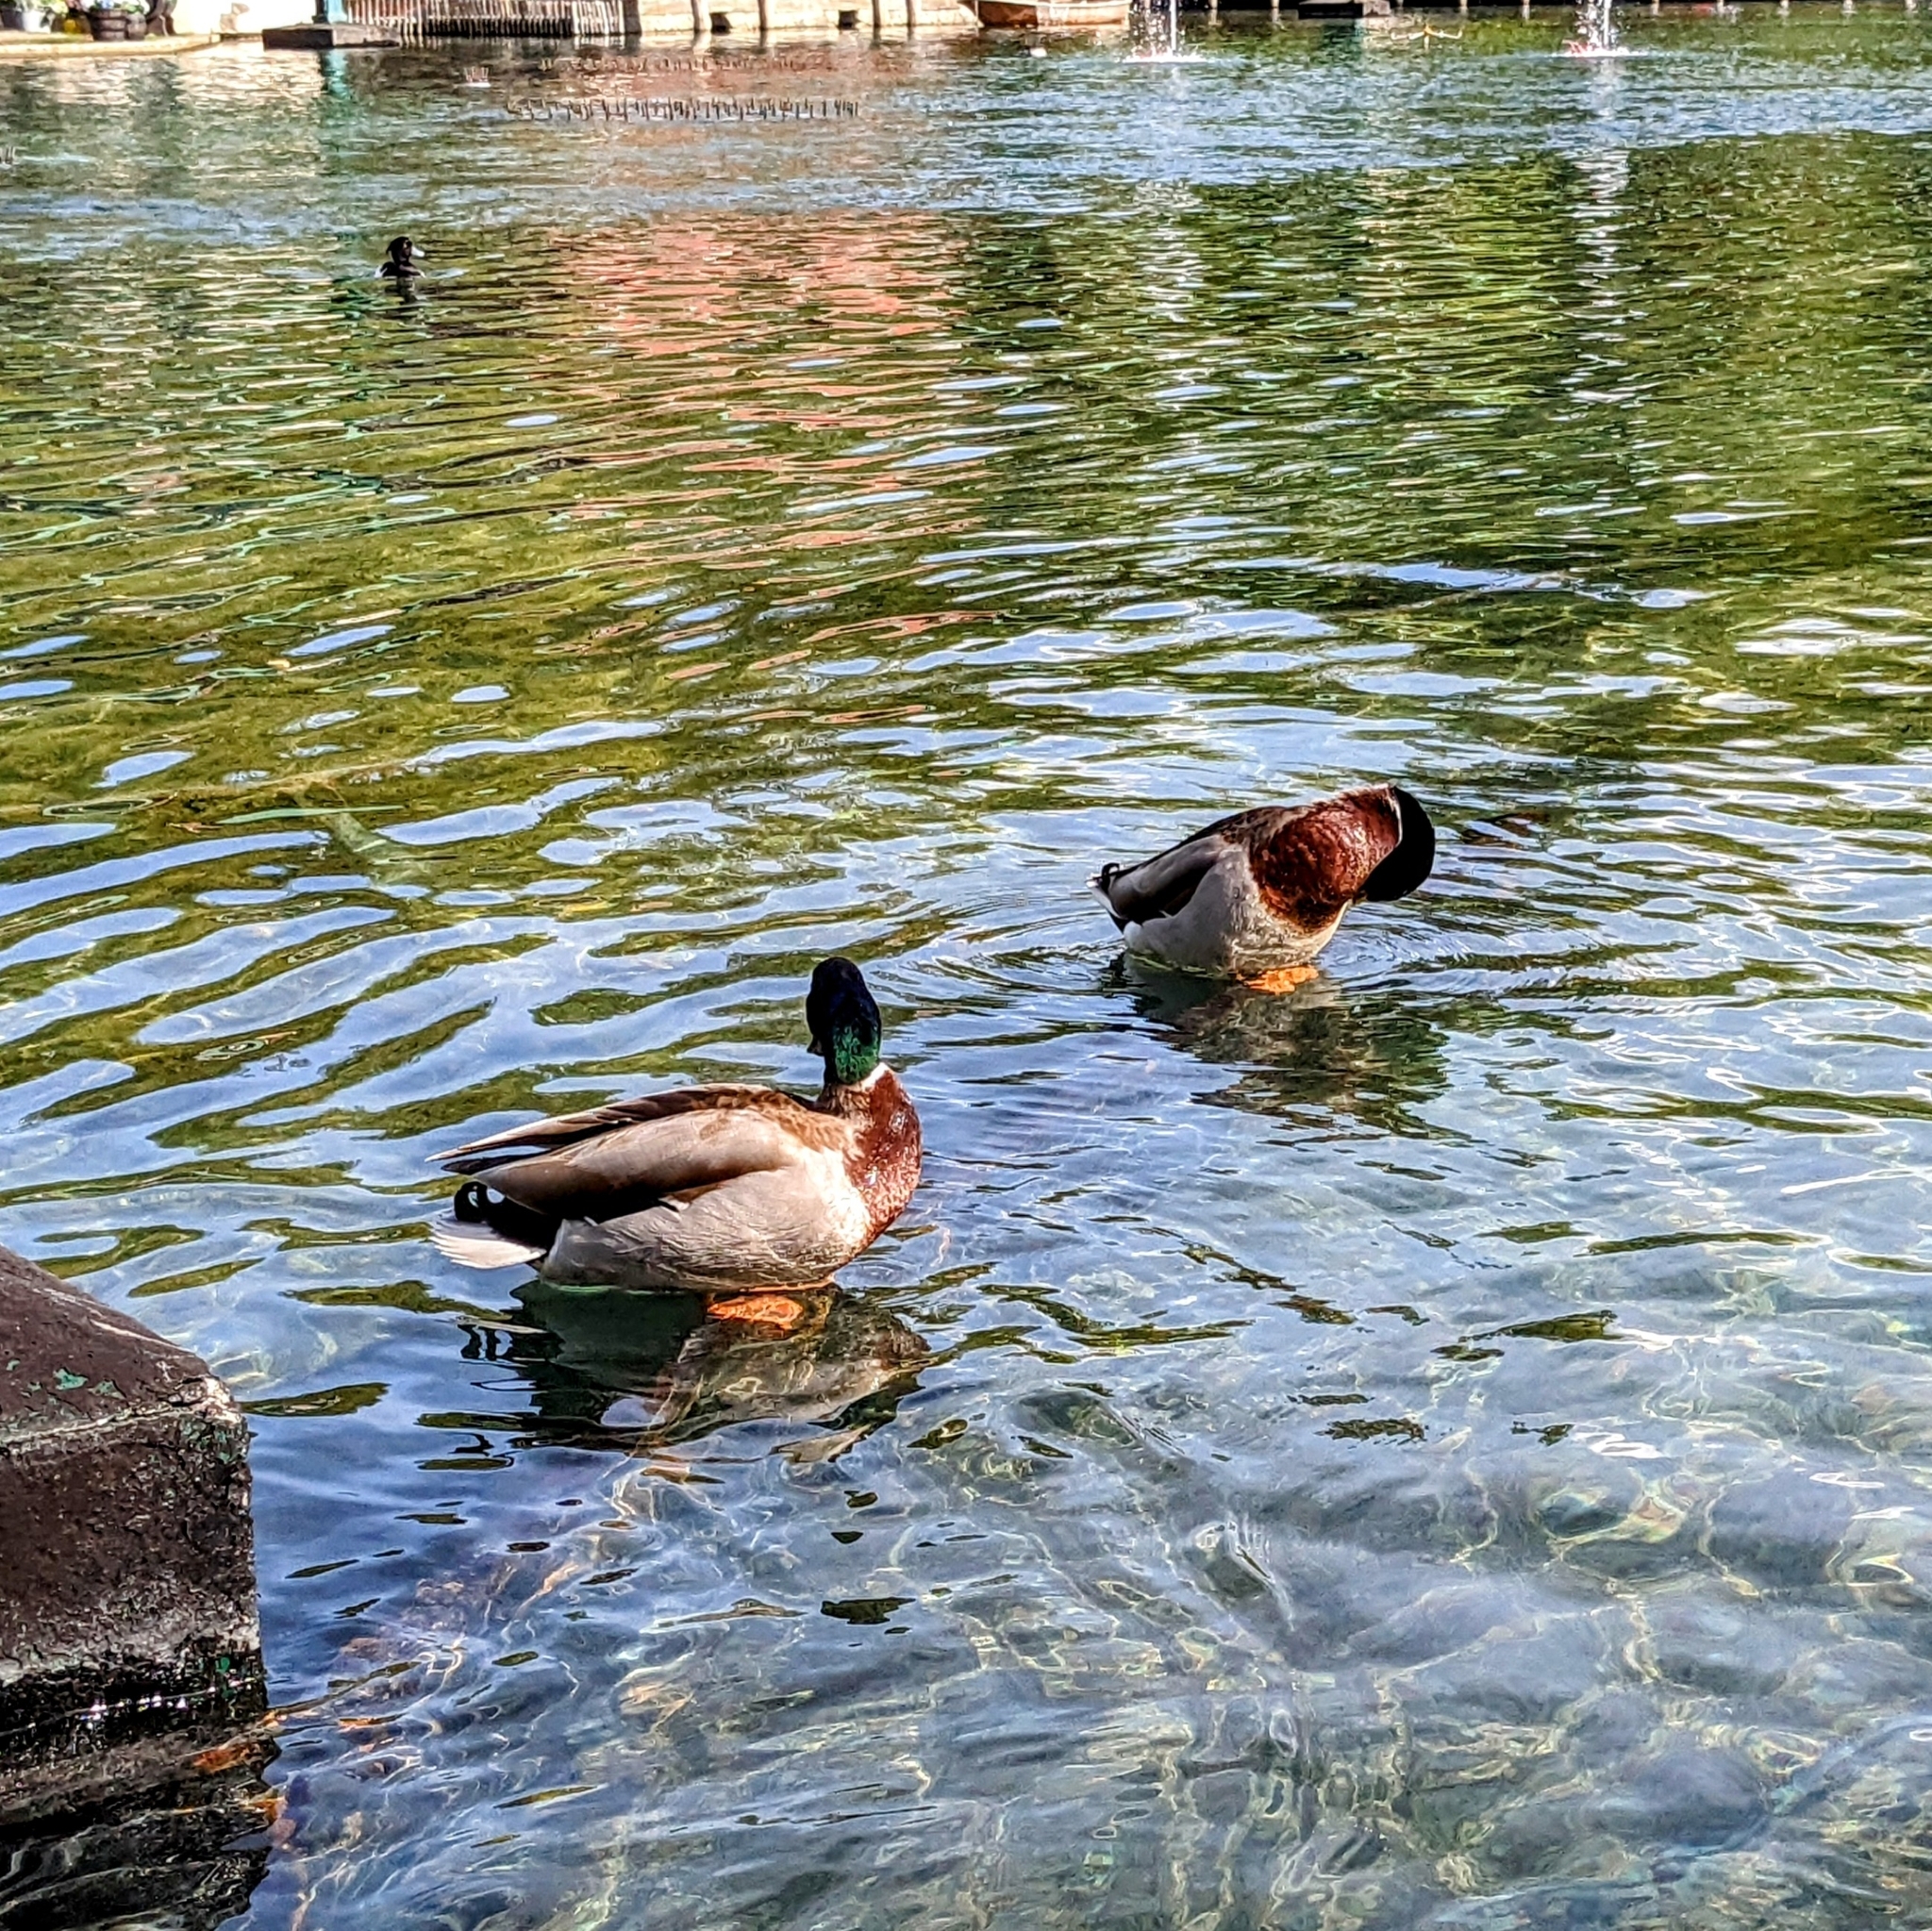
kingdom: Animalia
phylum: Chordata
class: Aves
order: Anseriformes
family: Anatidae
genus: Anas
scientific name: Anas platyrhynchos
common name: Mallard
